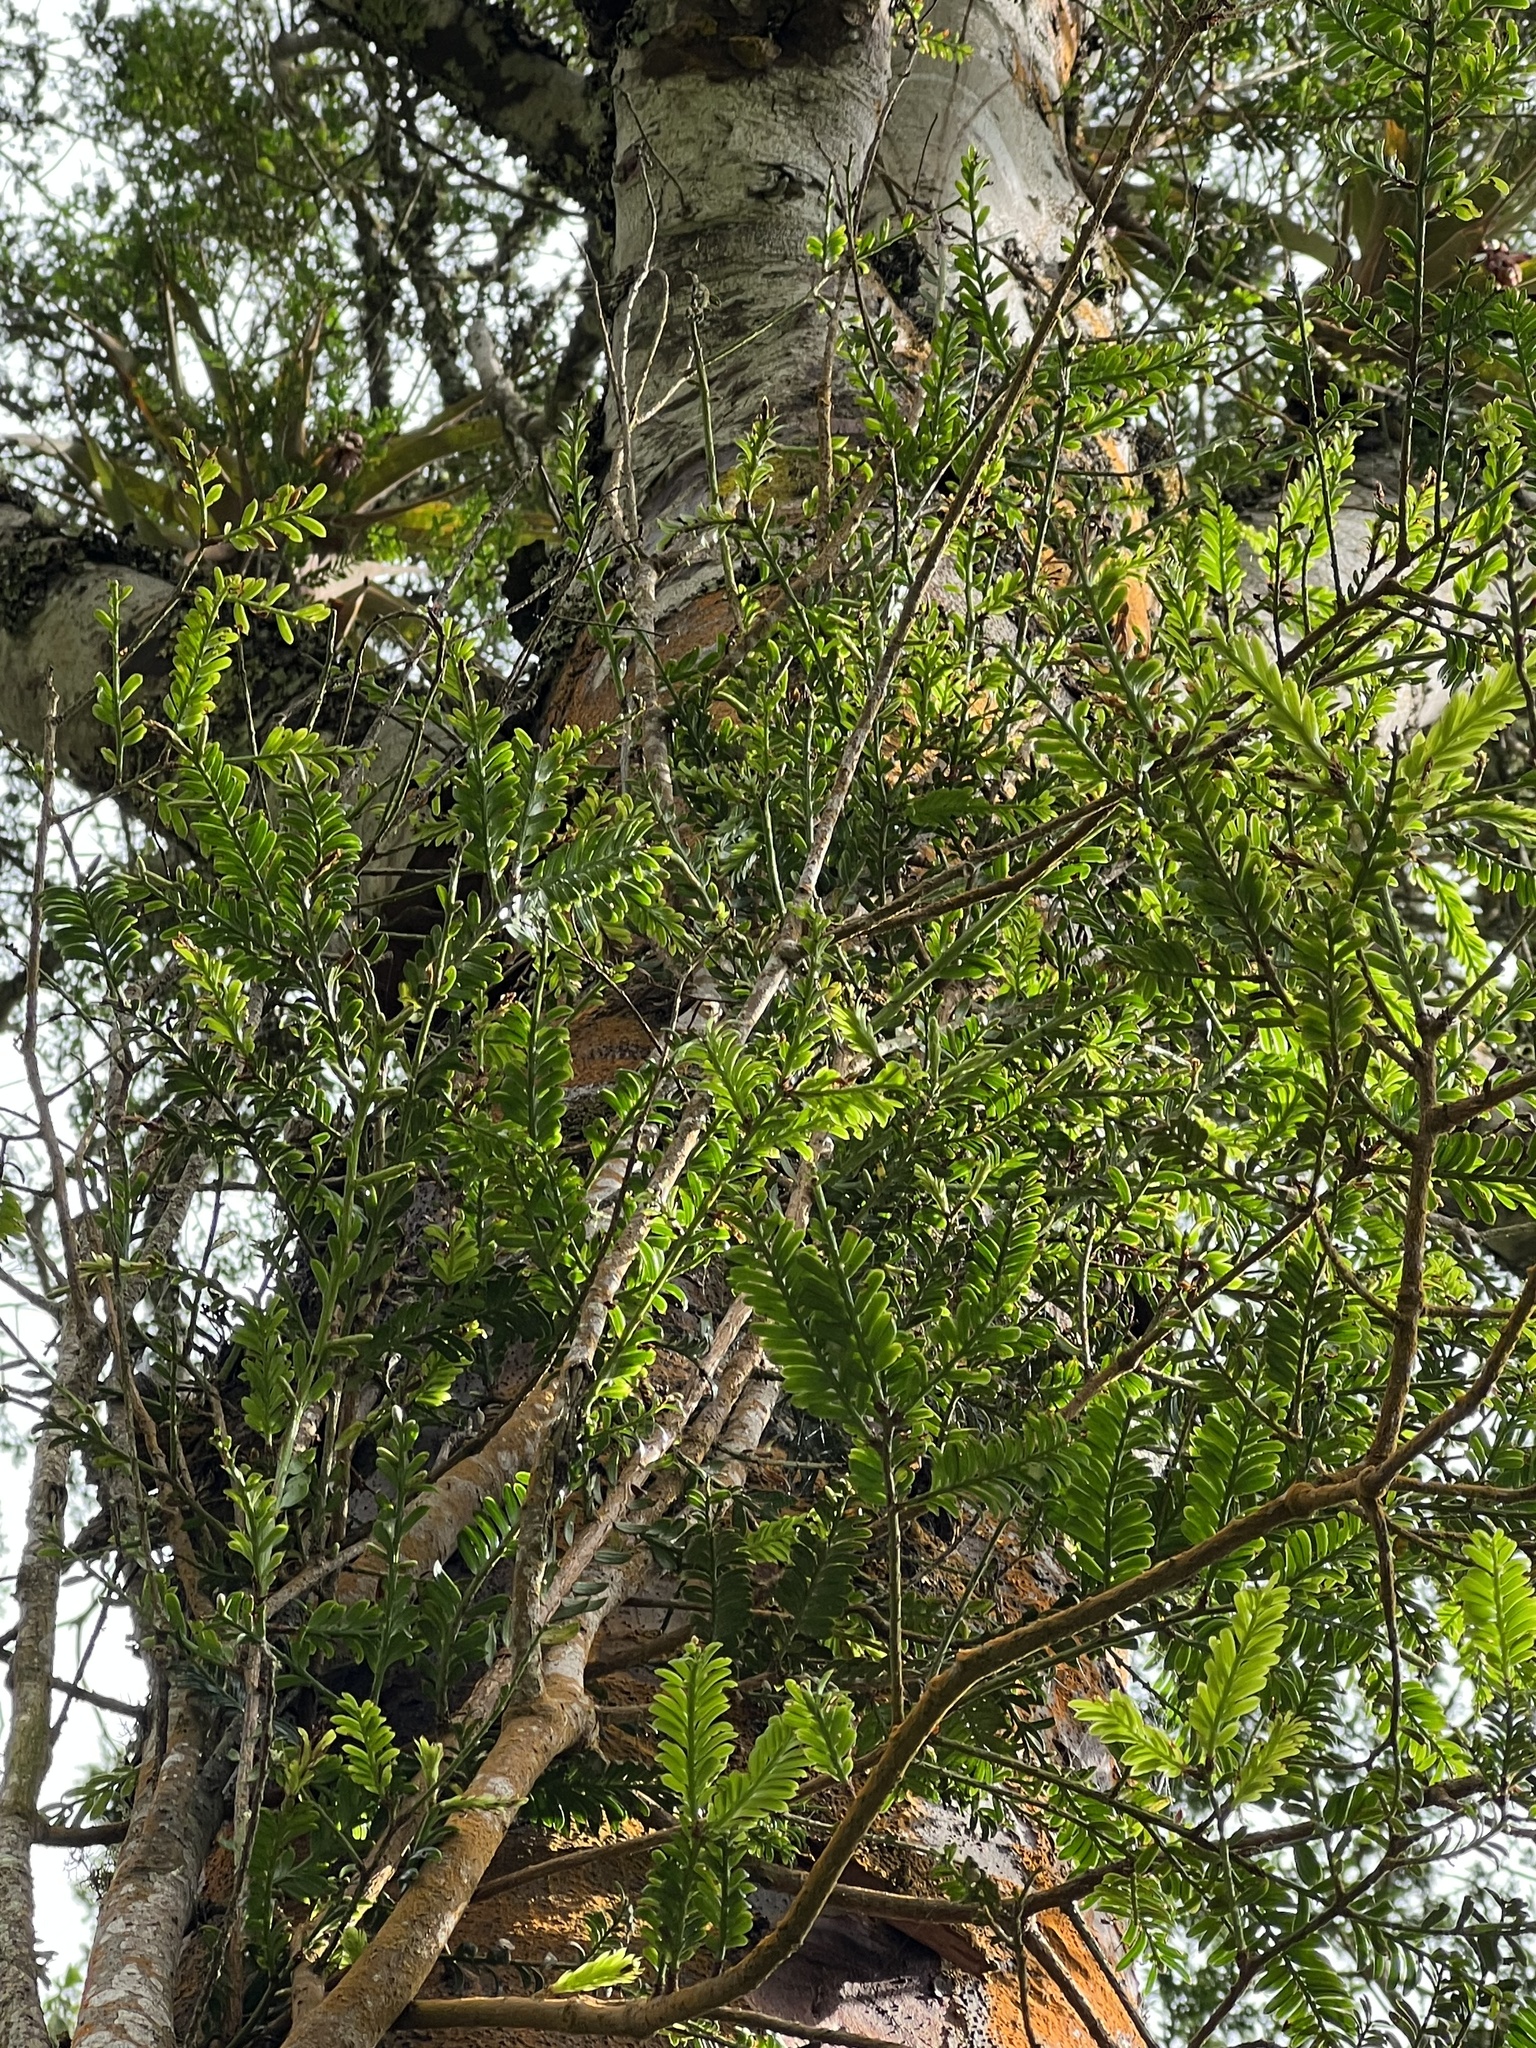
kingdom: Plantae
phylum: Tracheophyta
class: Pinopsida
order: Pinales
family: Podocarpaceae
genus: Prumnopitys
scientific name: Prumnopitys montana
